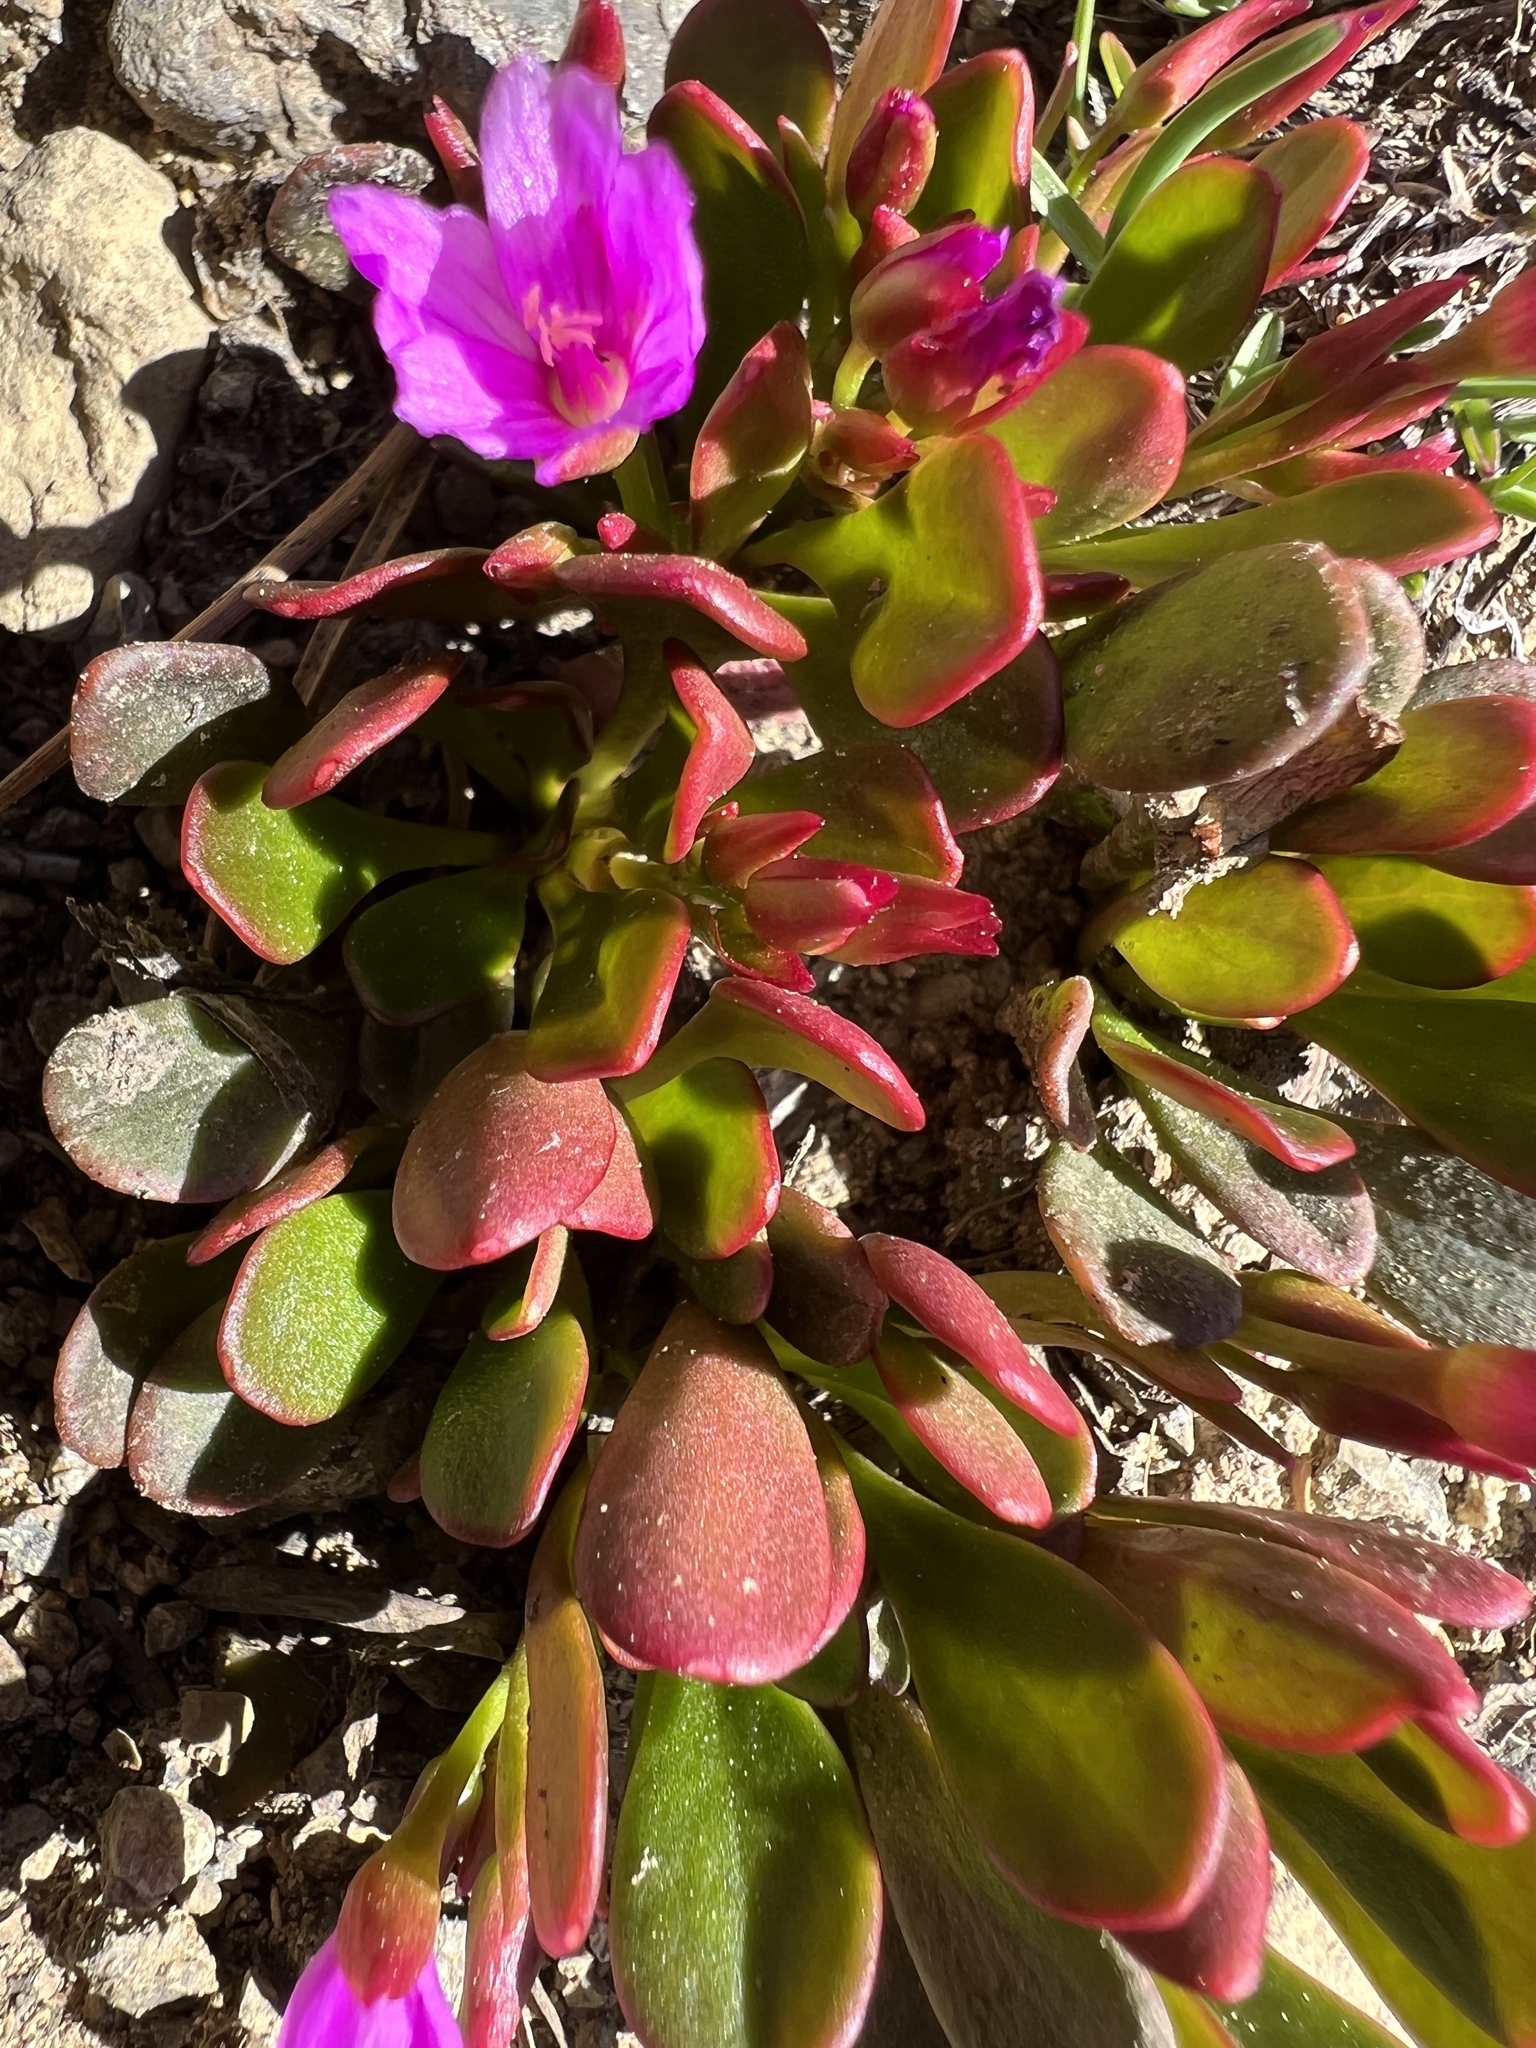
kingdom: Plantae
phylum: Tracheophyta
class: Magnoliopsida
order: Caryophyllales
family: Montiaceae
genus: Claytonia
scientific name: Claytonia megarhiza
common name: Alpine spring beauty
